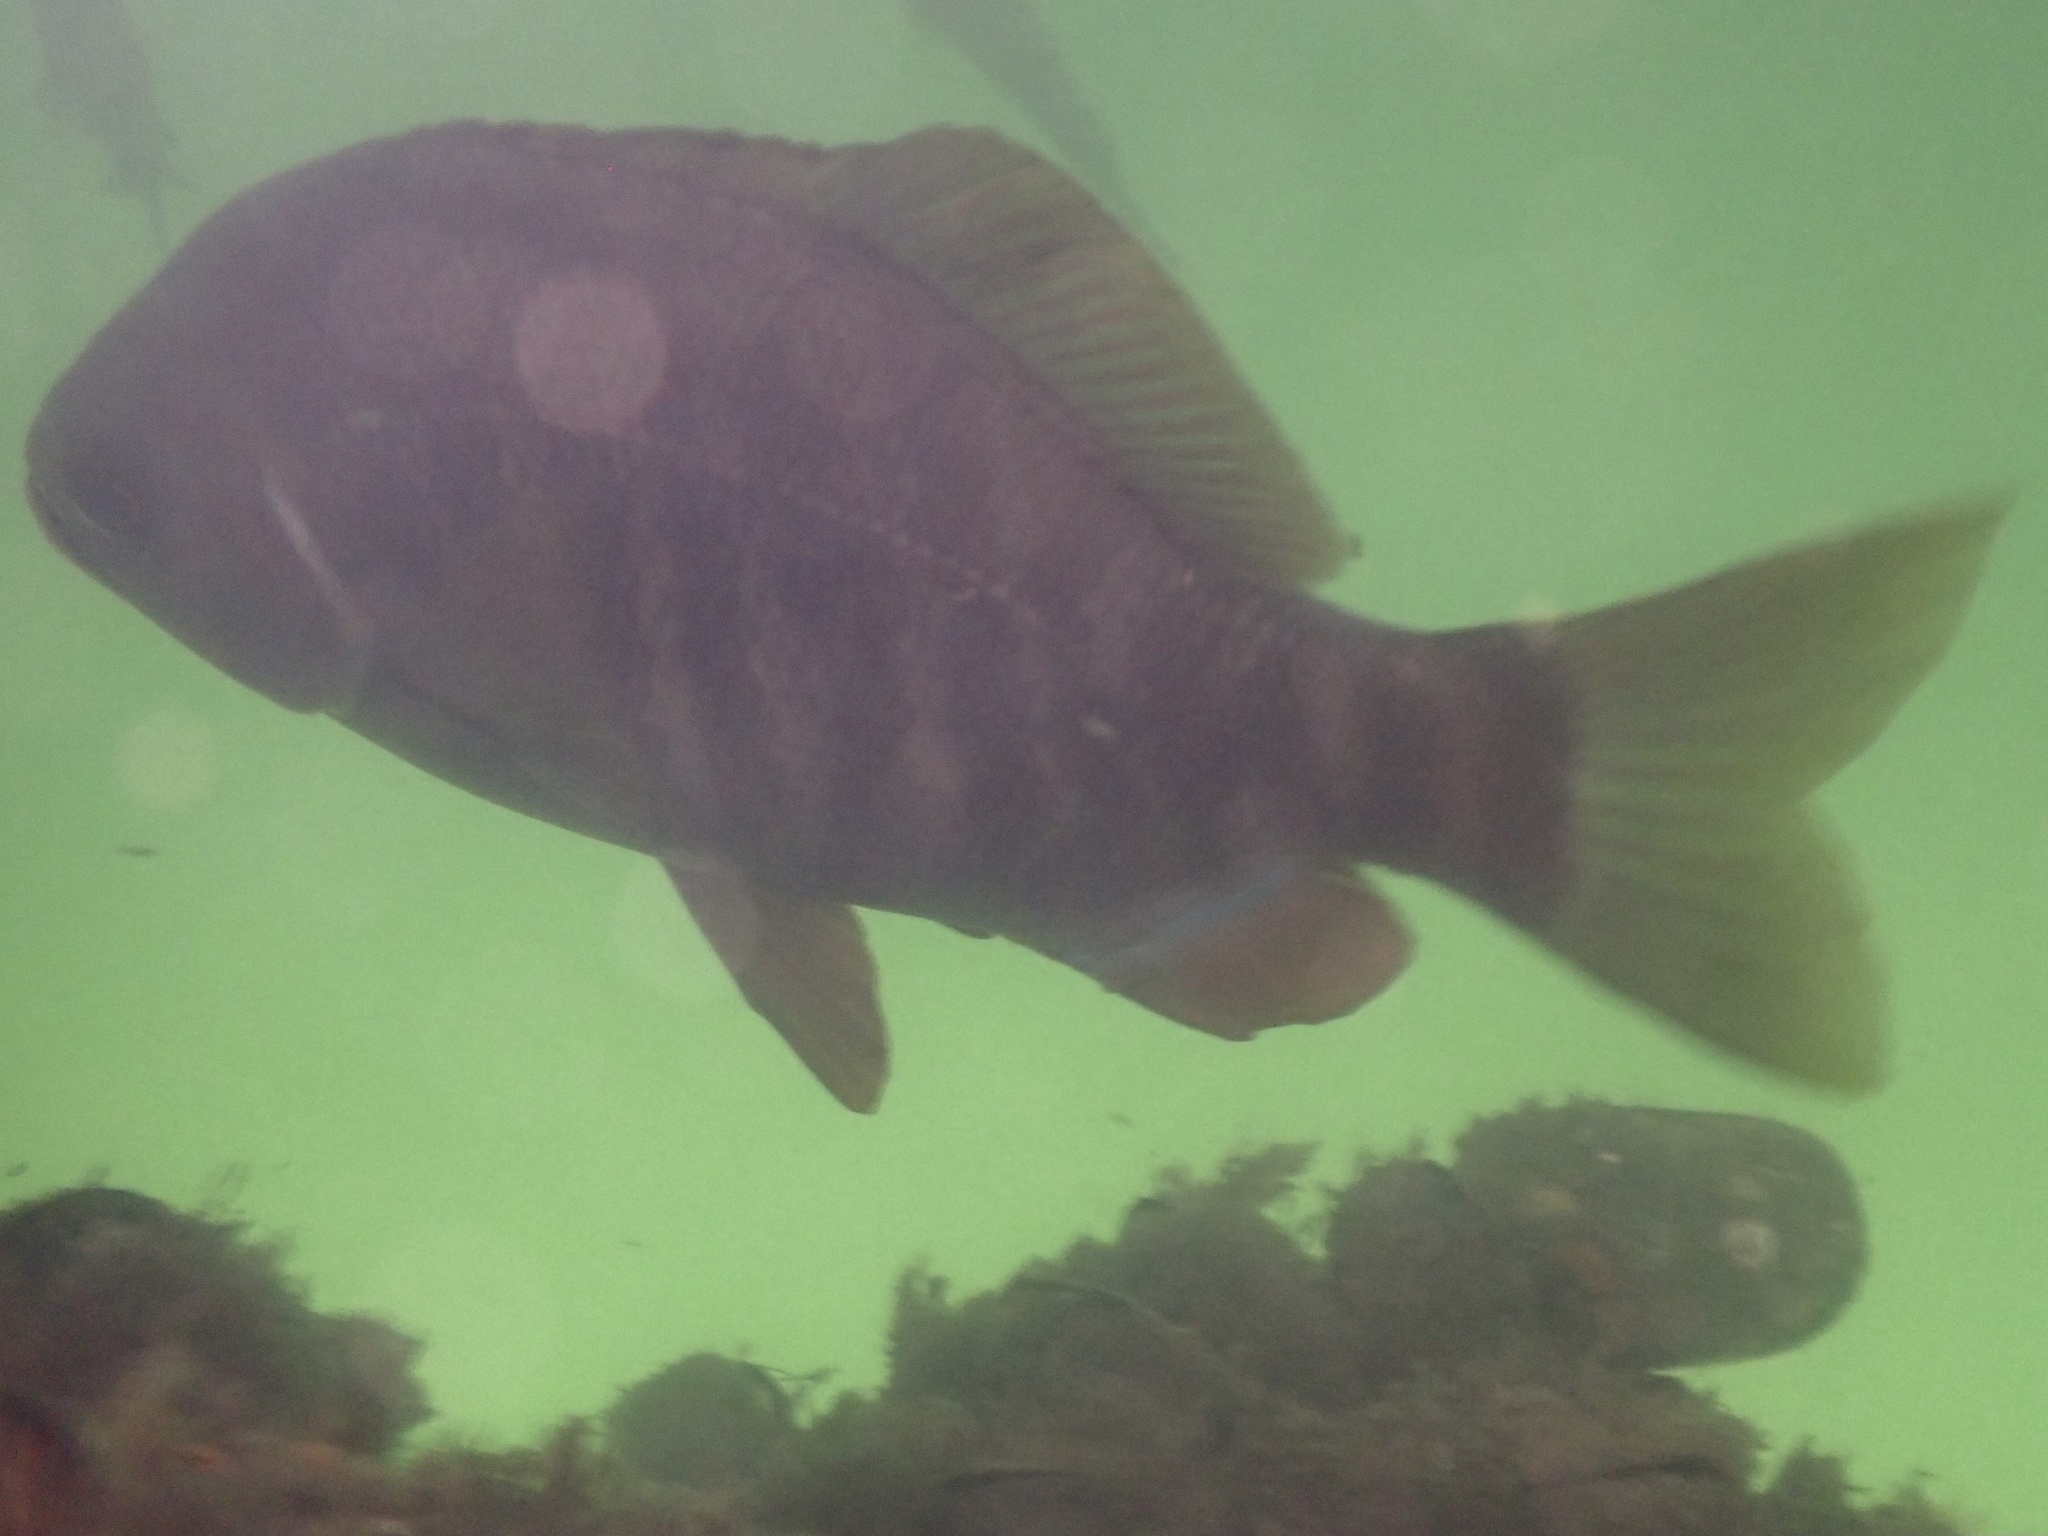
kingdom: Animalia
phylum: Chordata
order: Perciformes
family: Embiotocidae
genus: Embiotoca
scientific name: Embiotoca jacksoni
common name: Black perch
